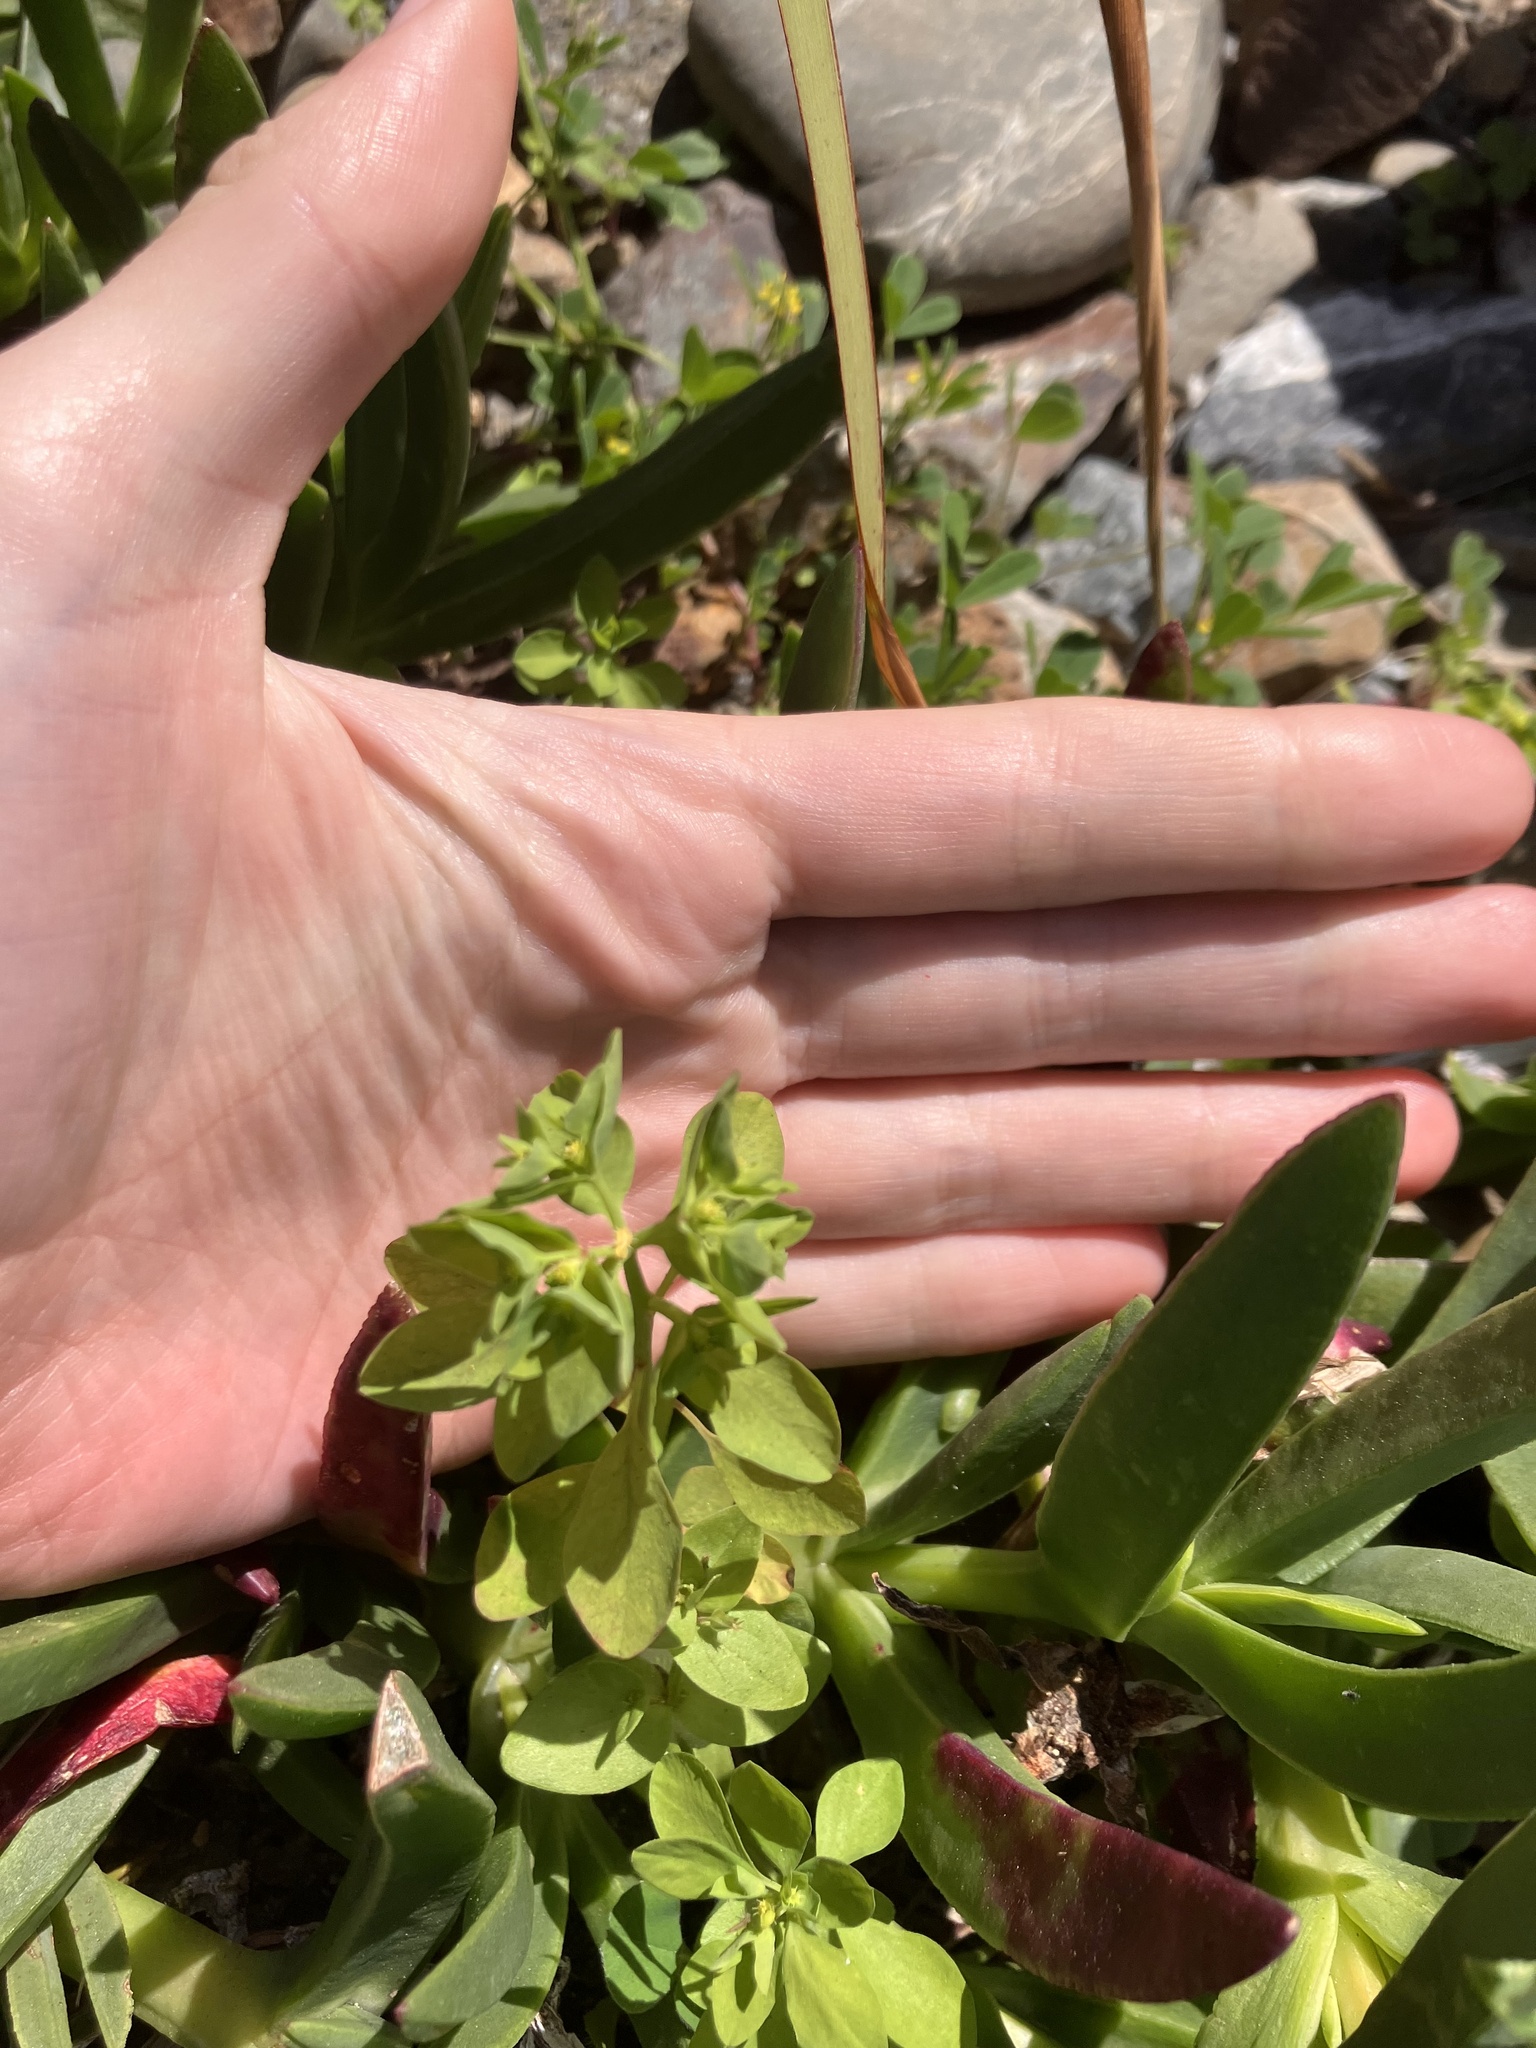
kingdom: Plantae
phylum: Tracheophyta
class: Magnoliopsida
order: Malpighiales
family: Euphorbiaceae
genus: Euphorbia
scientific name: Euphorbia peplus
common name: Petty spurge
